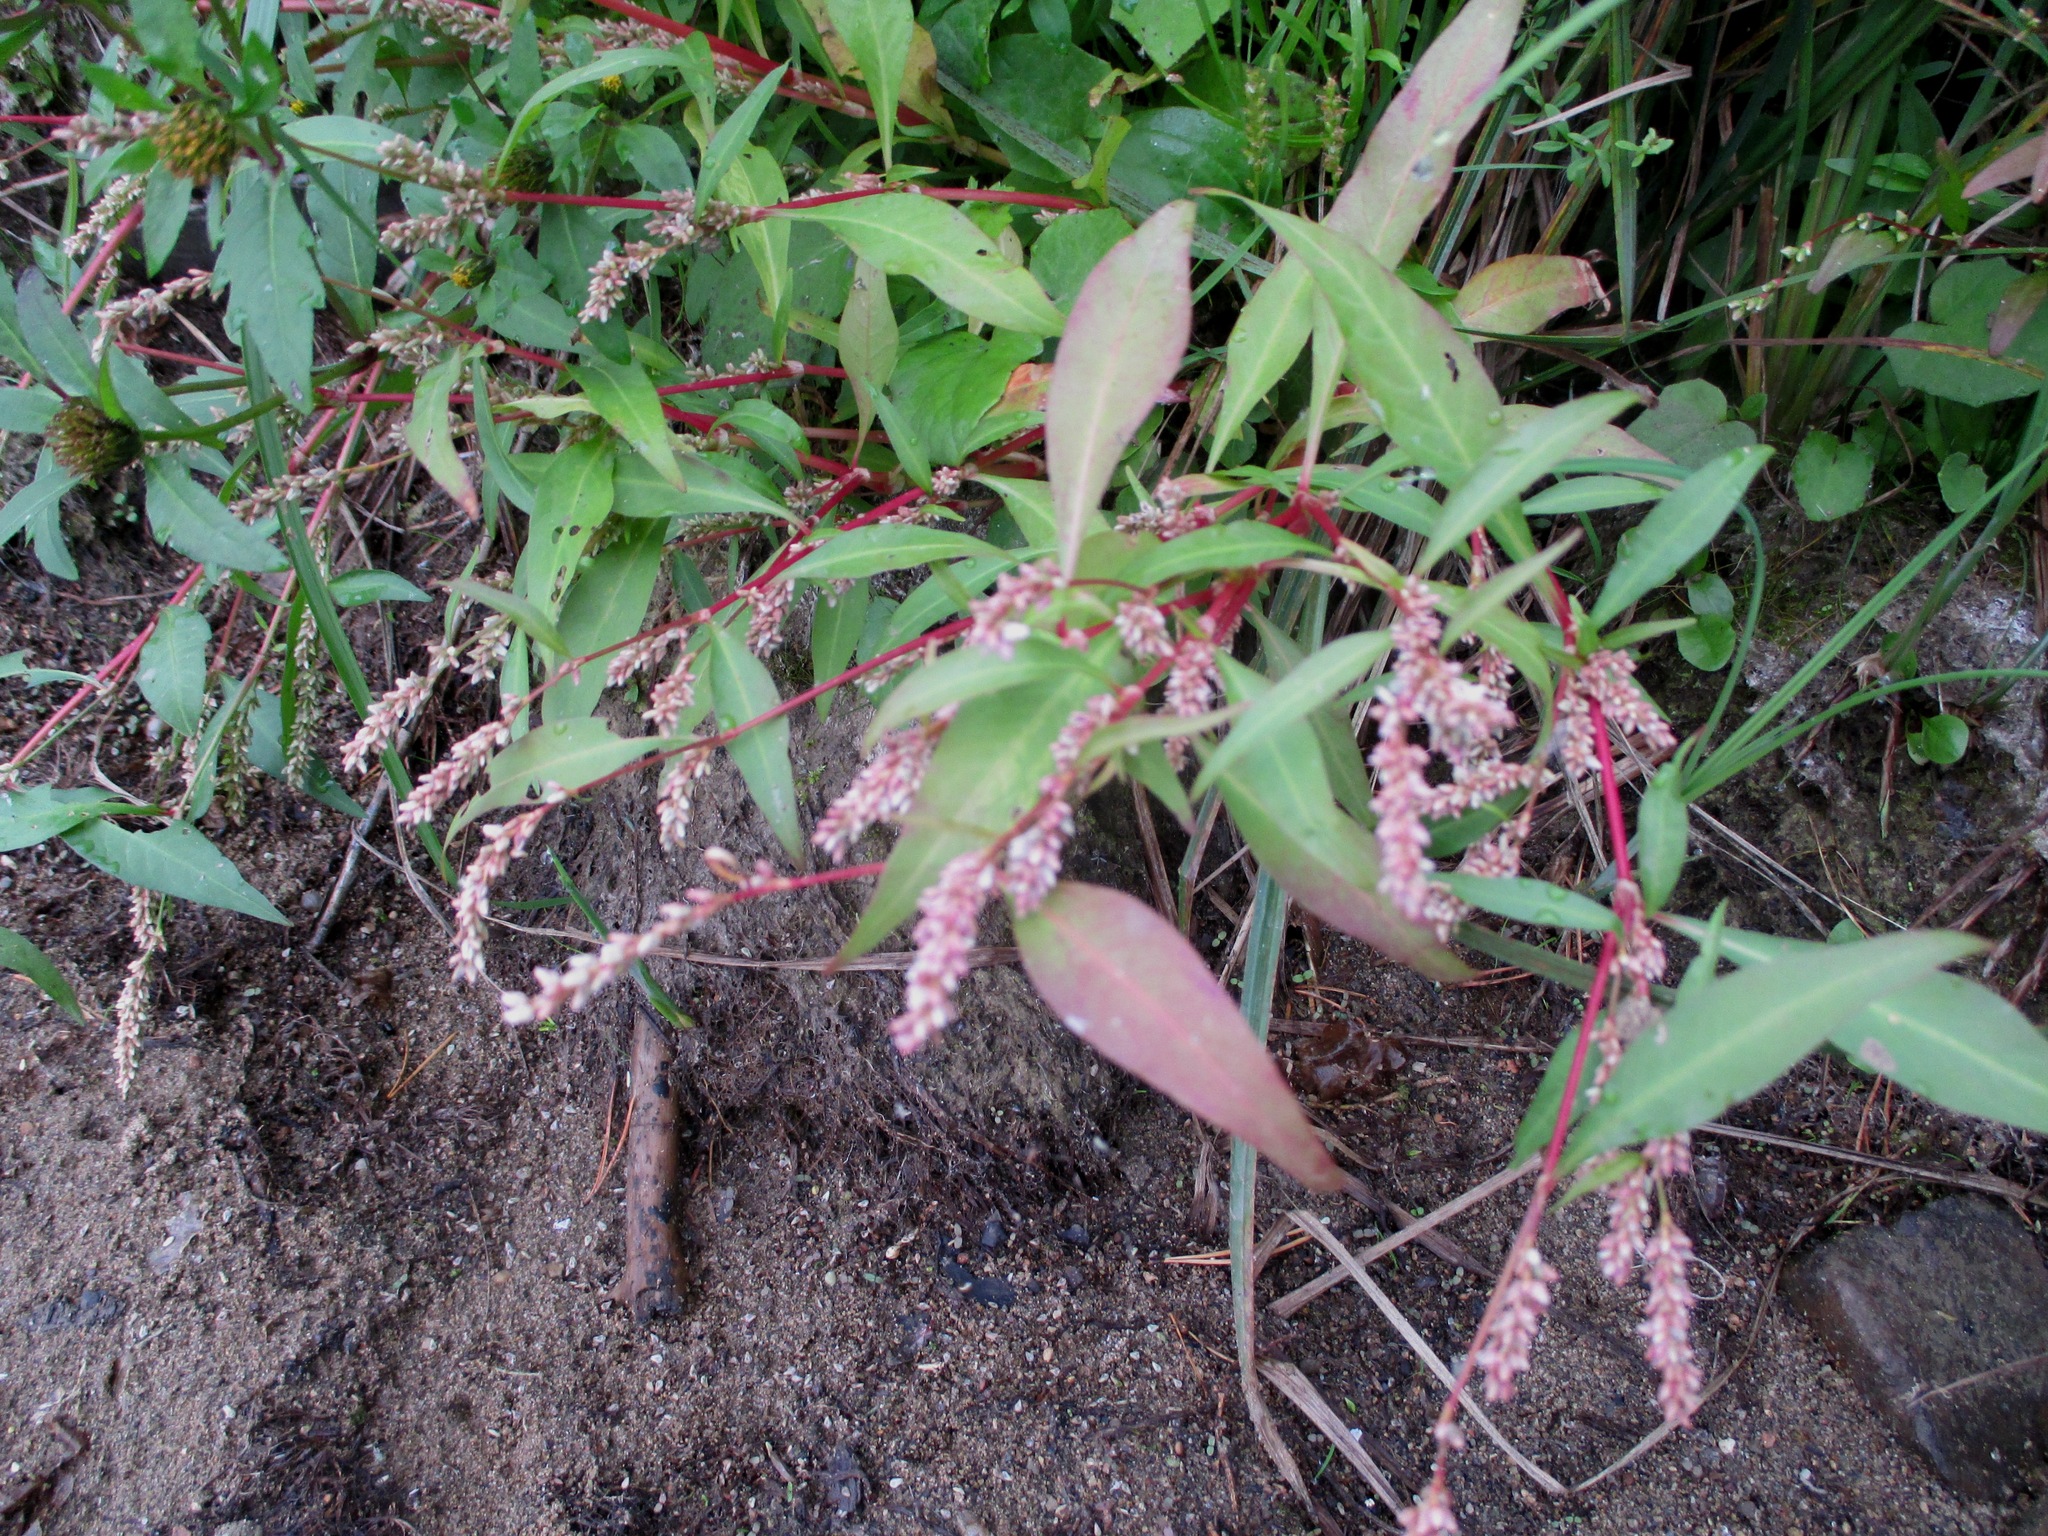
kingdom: Plantae
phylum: Tracheophyta
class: Magnoliopsida
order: Caryophyllales
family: Polygonaceae
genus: Persicaria
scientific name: Persicaria lapathifolia
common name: Curlytop knotweed
